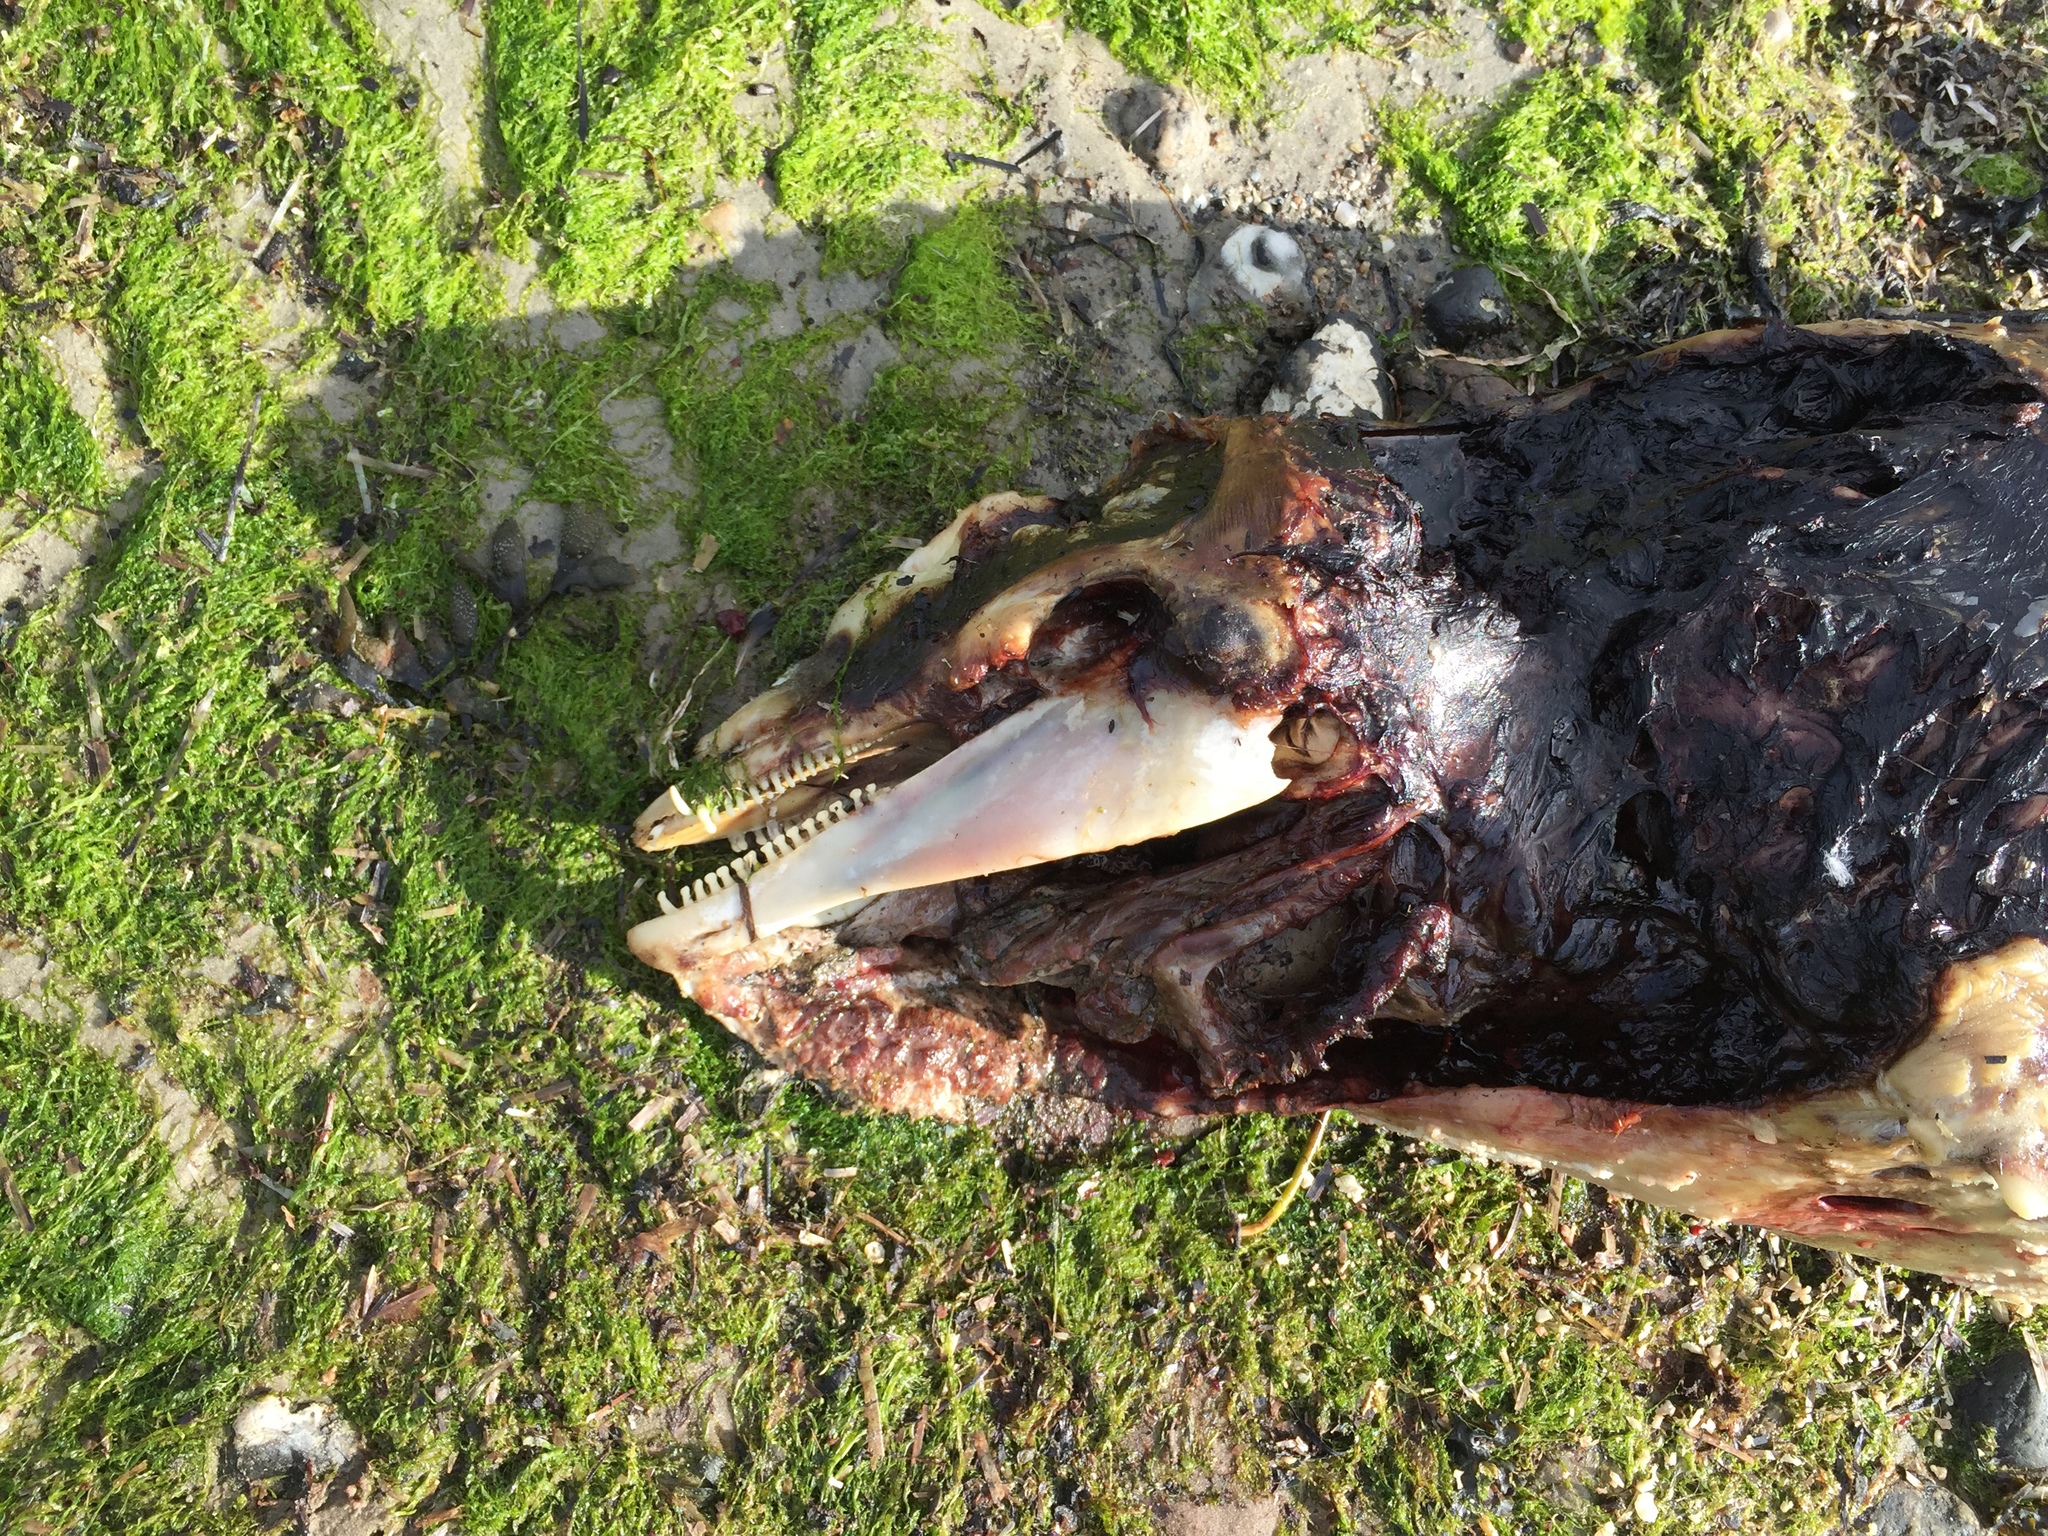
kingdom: Animalia
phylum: Chordata
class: Mammalia
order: Cetacea
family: Phocoenidae
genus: Phocoena
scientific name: Phocoena phocoena
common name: Harbor porpoise
